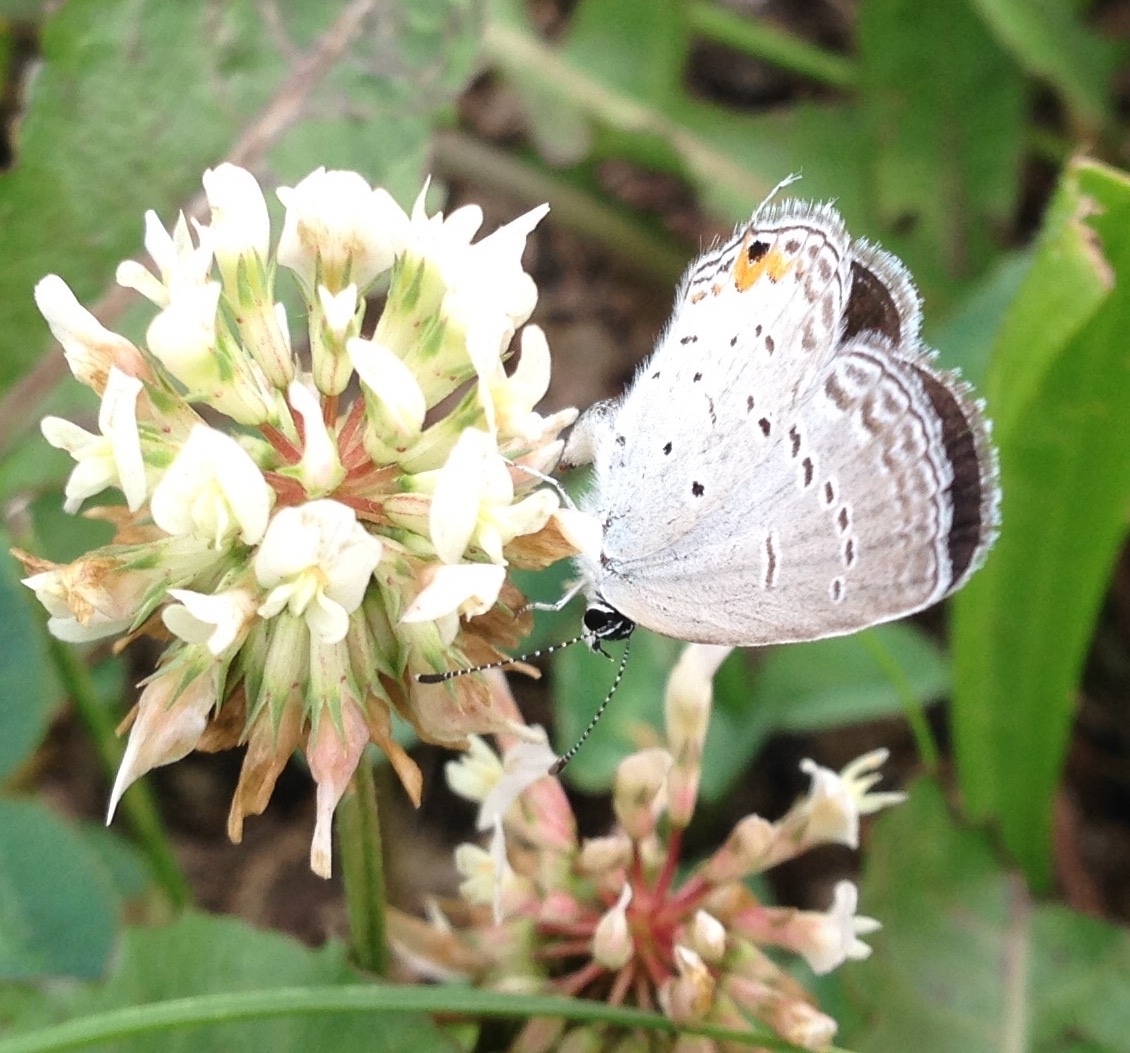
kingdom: Animalia
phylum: Arthropoda
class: Insecta
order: Lepidoptera
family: Lycaenidae
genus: Elkalyce
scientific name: Elkalyce comyntas
